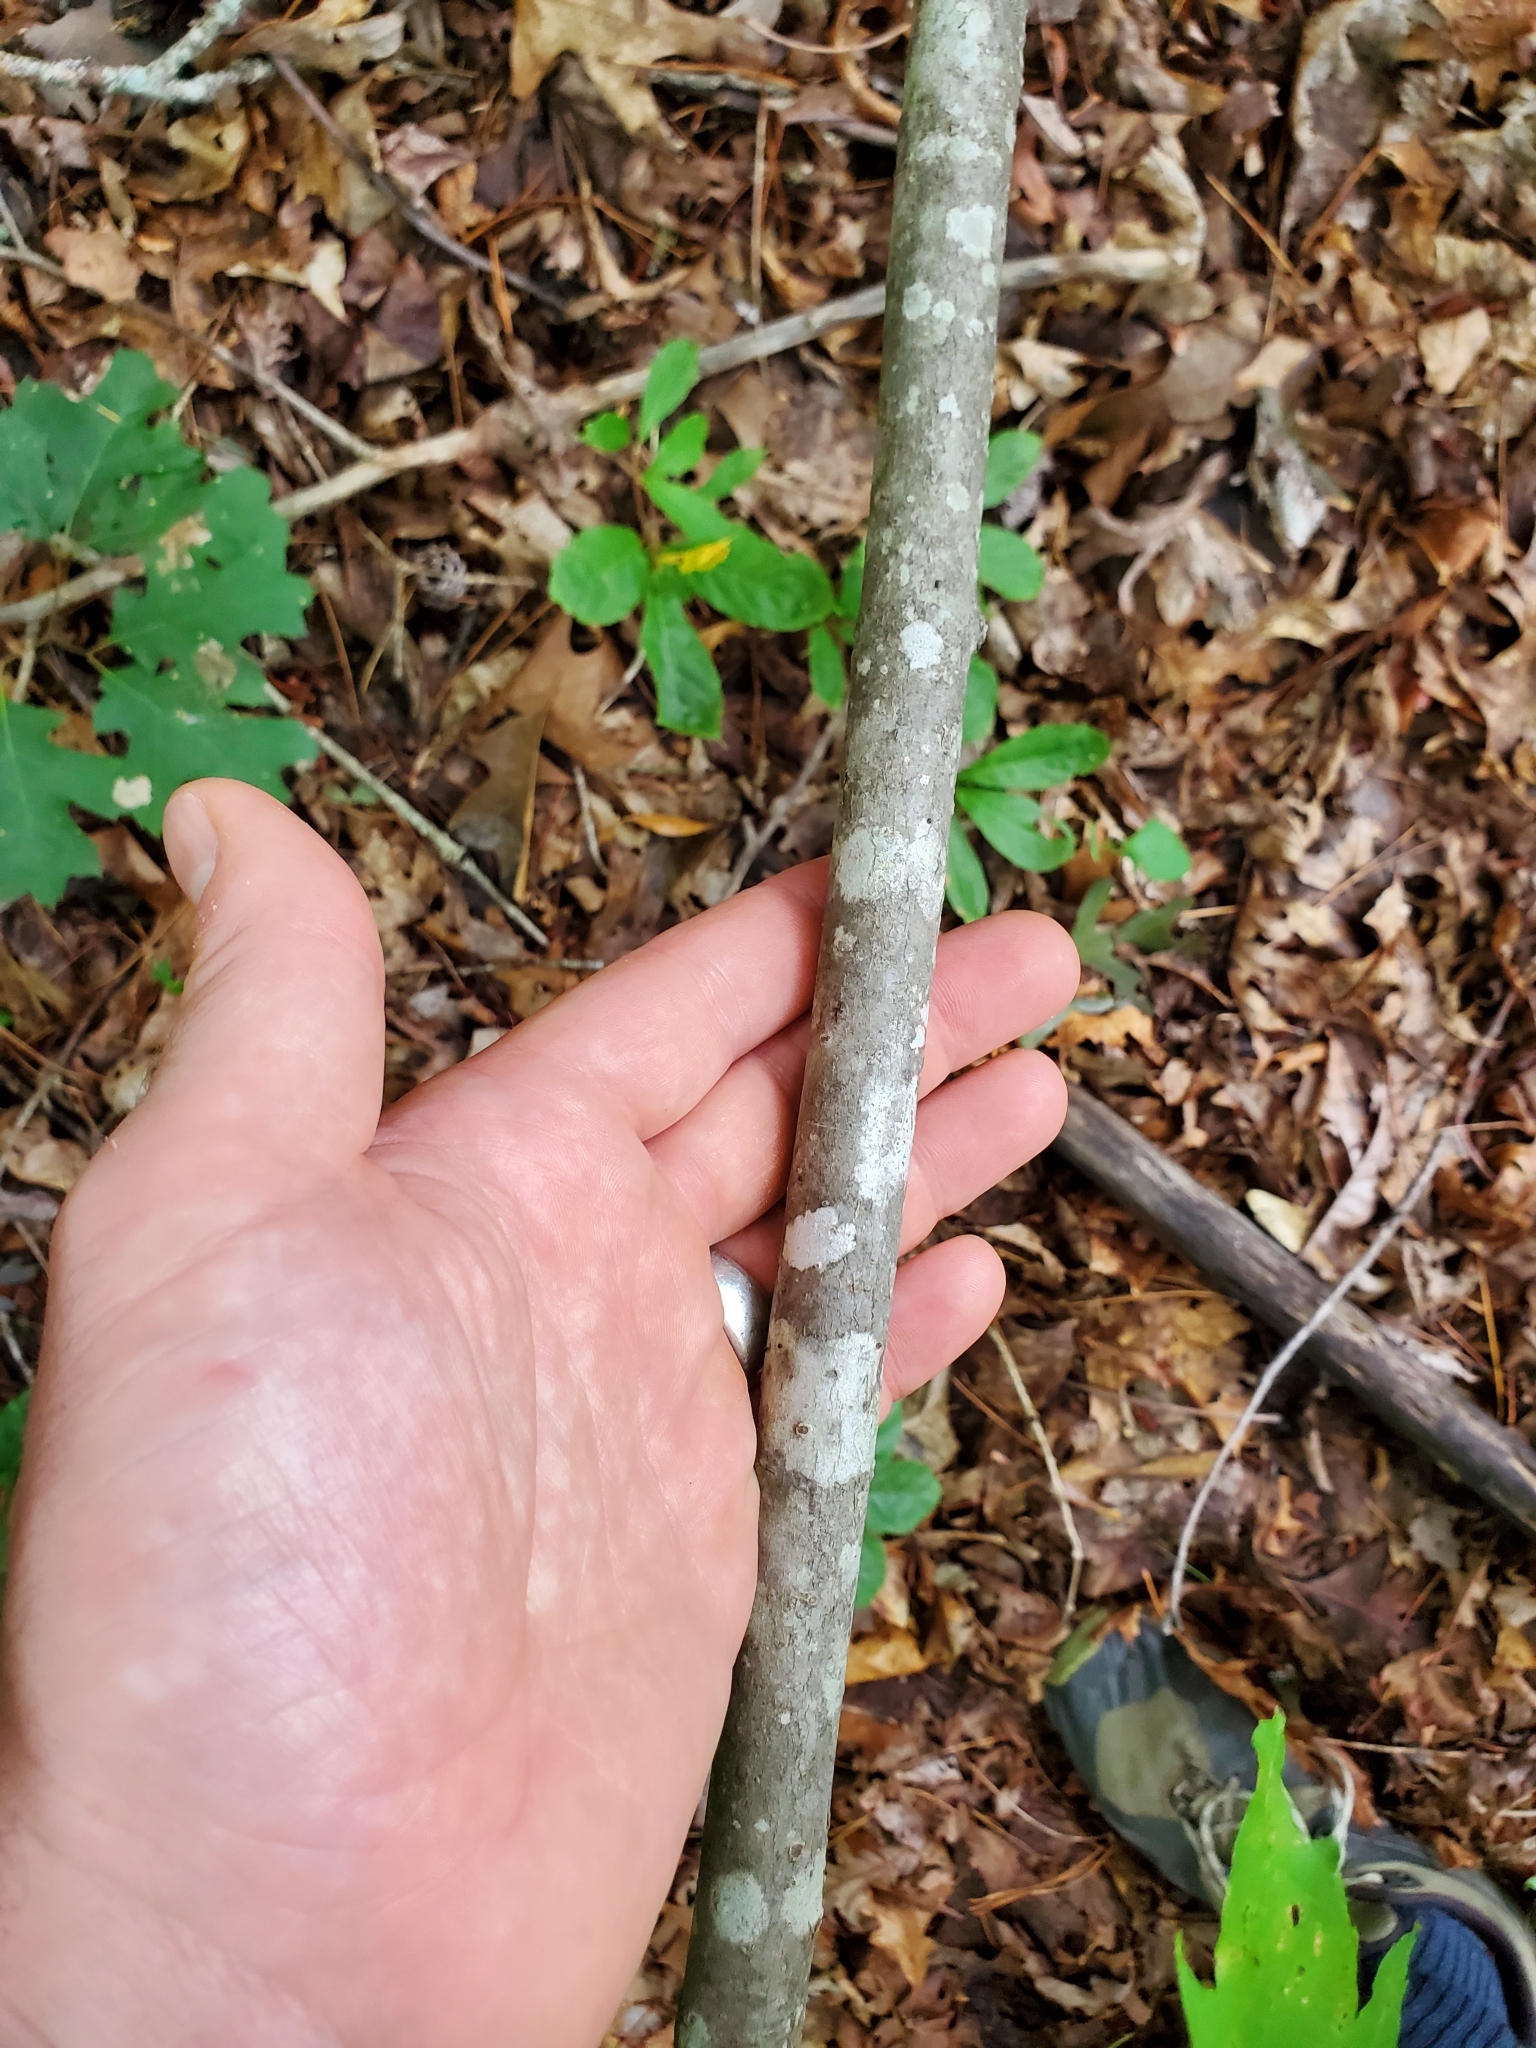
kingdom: Plantae
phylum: Tracheophyta
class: Magnoliopsida
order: Sapindales
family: Sapindaceae
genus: Acer
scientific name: Acer rubrum
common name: Red maple
